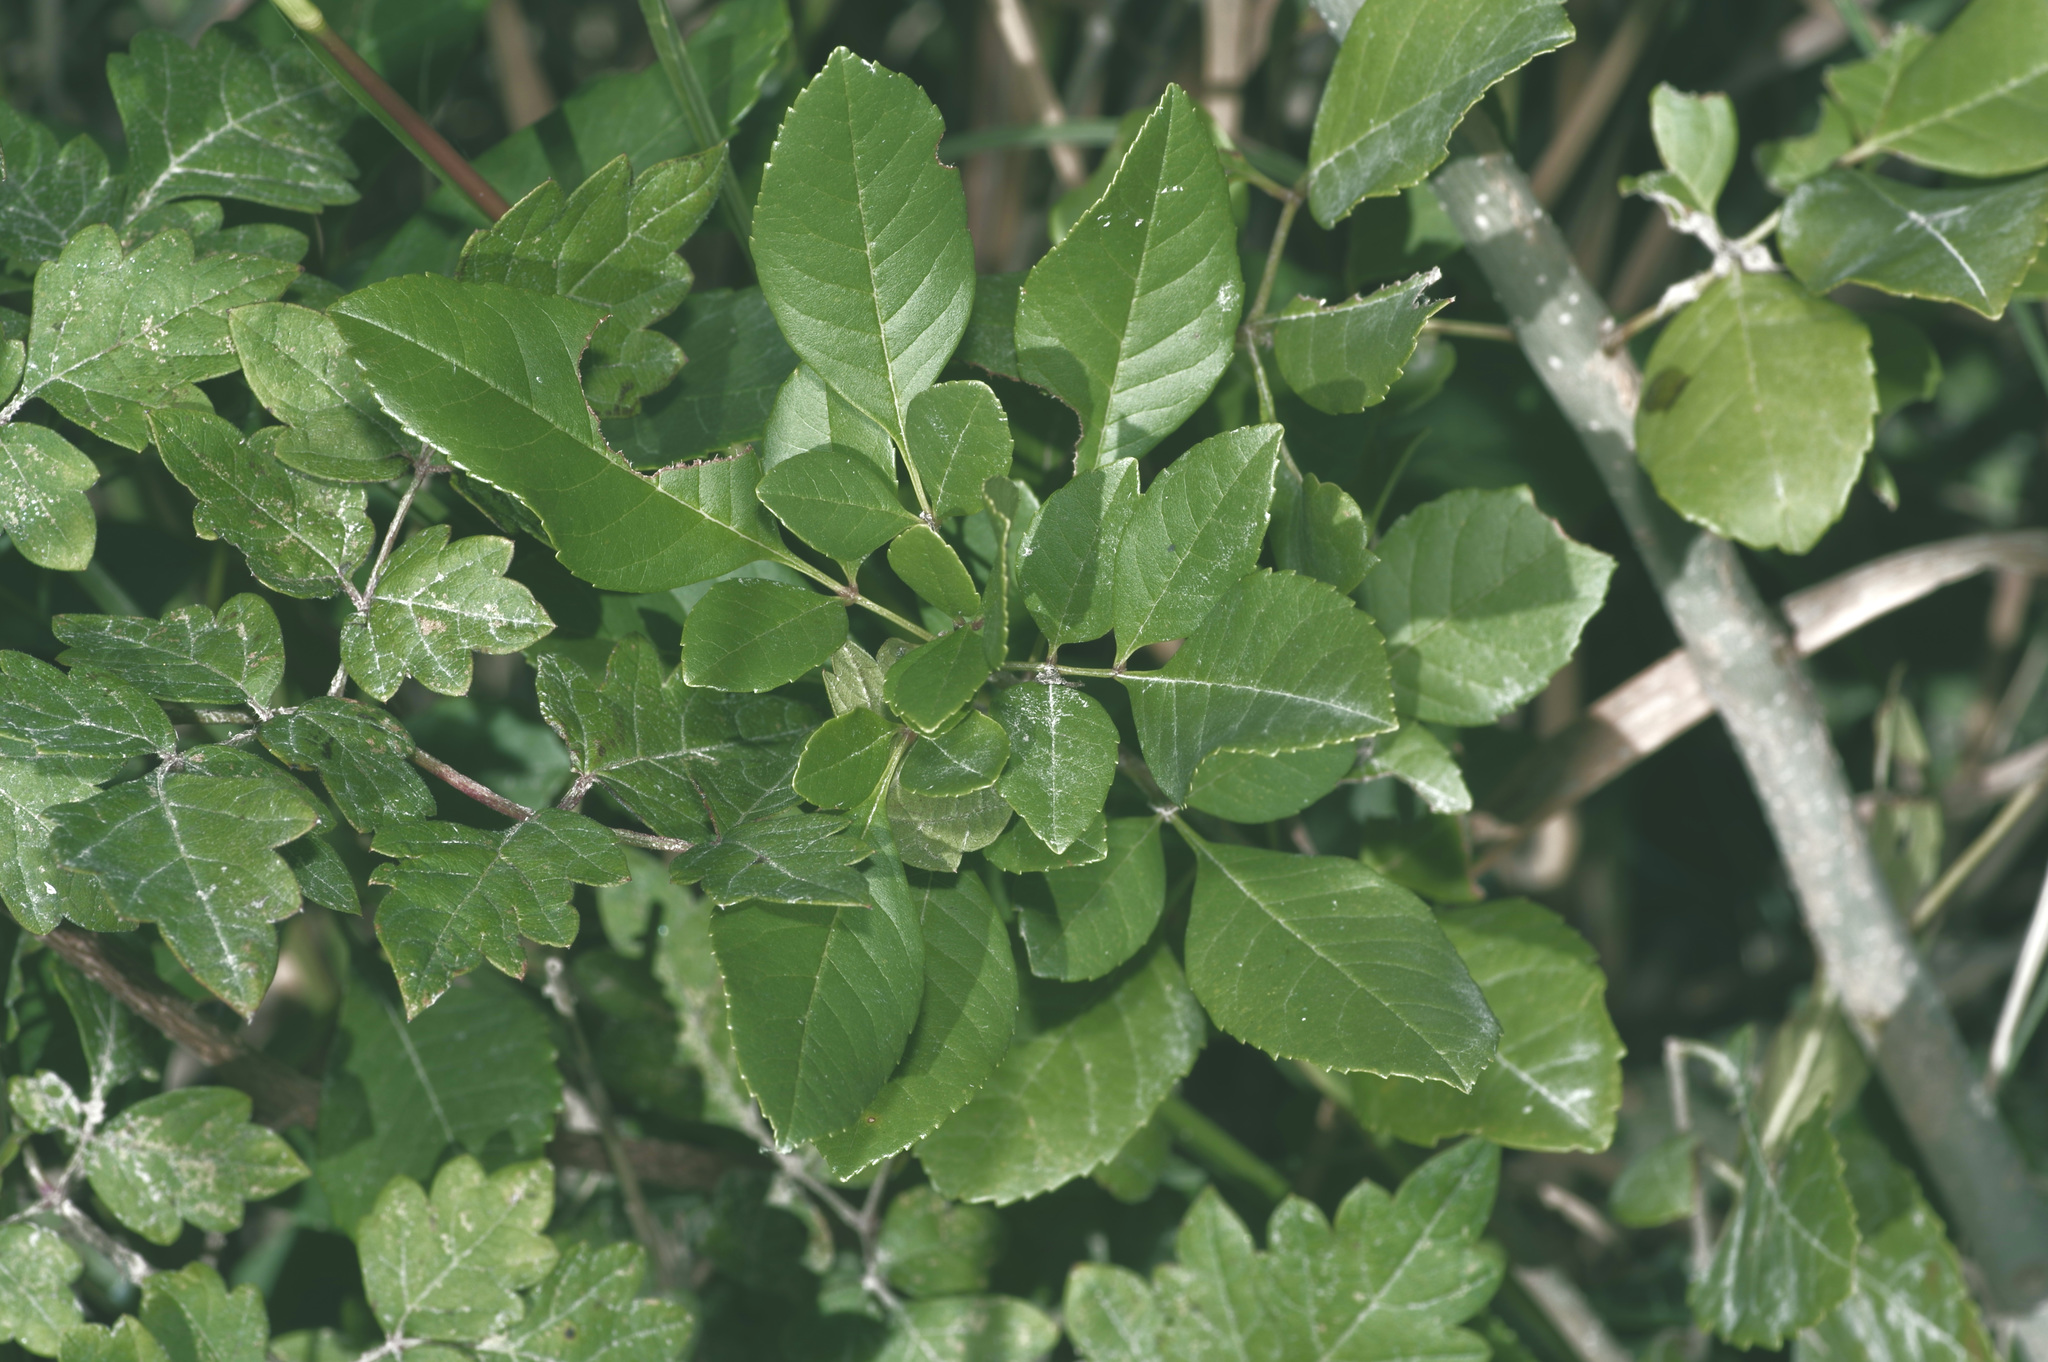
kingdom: Plantae
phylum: Tracheophyta
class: Magnoliopsida
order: Lamiales
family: Oleaceae
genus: Fraxinus
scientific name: Fraxinus albicans
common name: Texas ash
